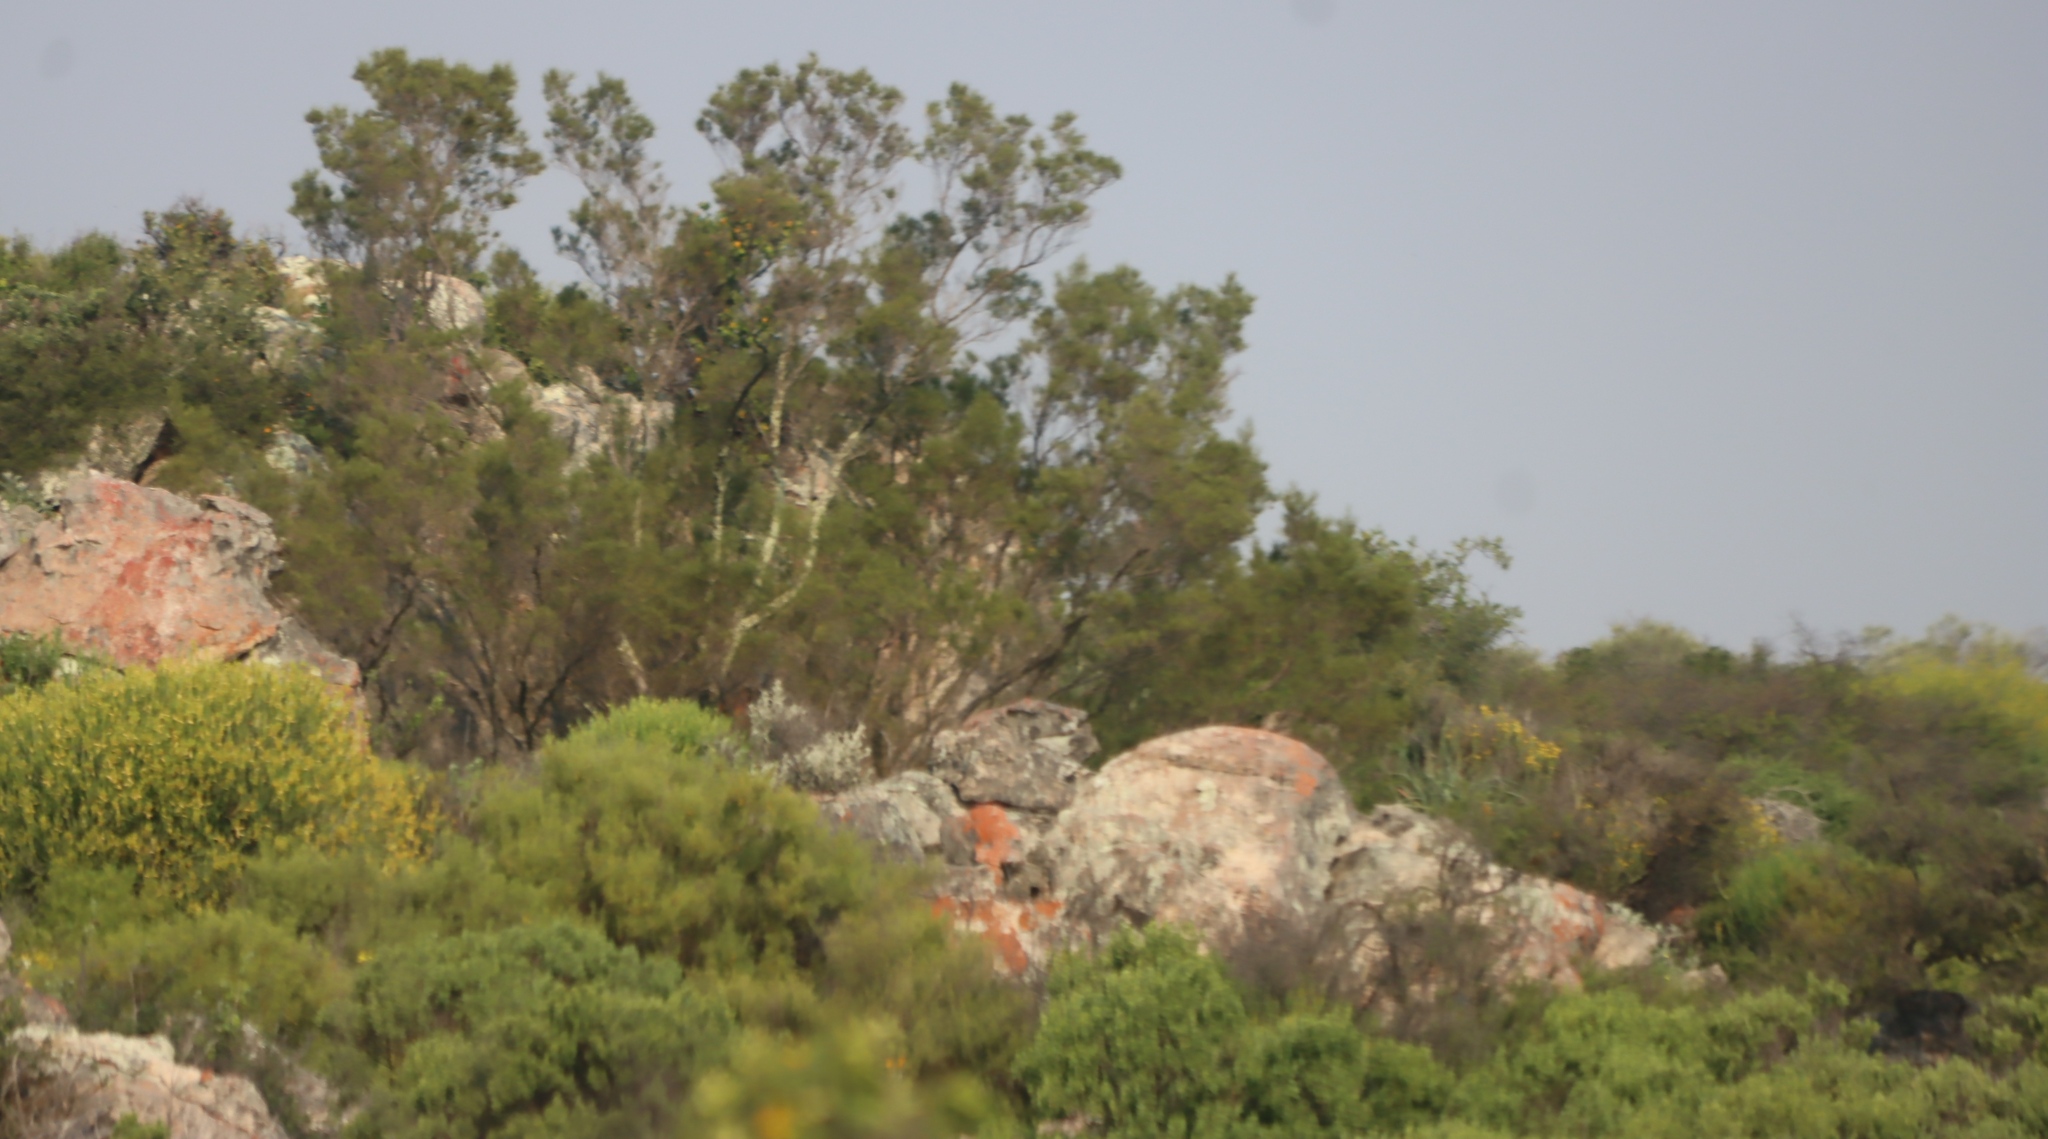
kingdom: Plantae
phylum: Tracheophyta
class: Magnoliopsida
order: Rosales
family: Moraceae
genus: Ficus
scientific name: Ficus cordata
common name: Namaqua rock fig
